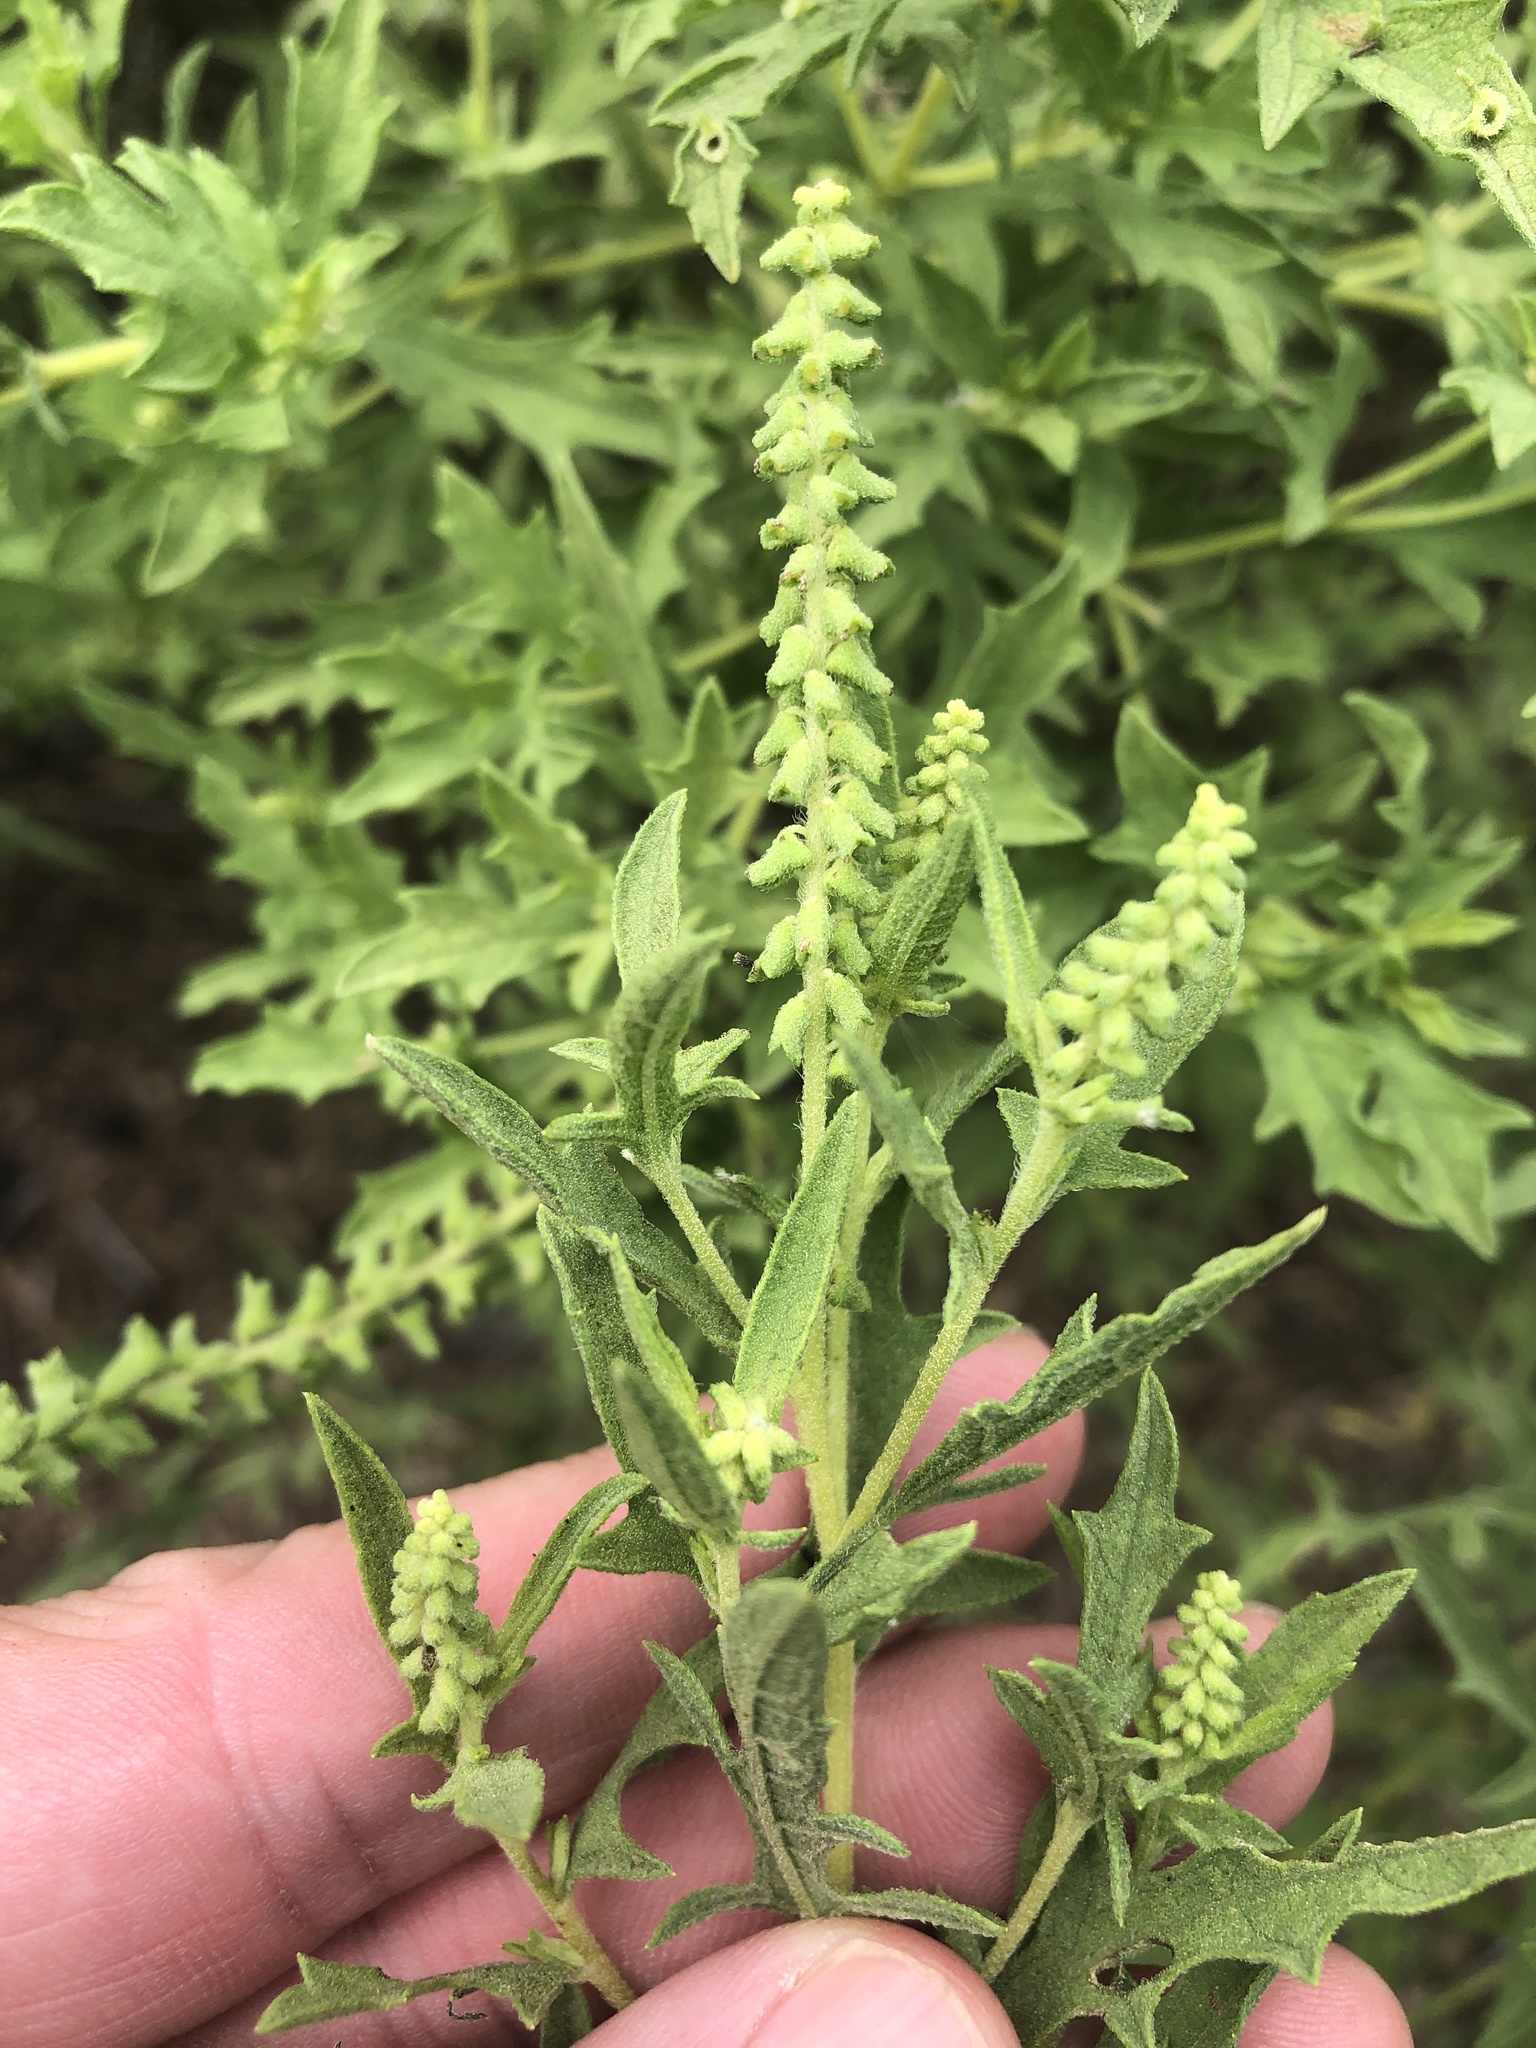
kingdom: Plantae
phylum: Tracheophyta
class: Magnoliopsida
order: Asterales
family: Asteraceae
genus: Ambrosia
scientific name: Ambrosia psilostachya
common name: Perennial ragweed
